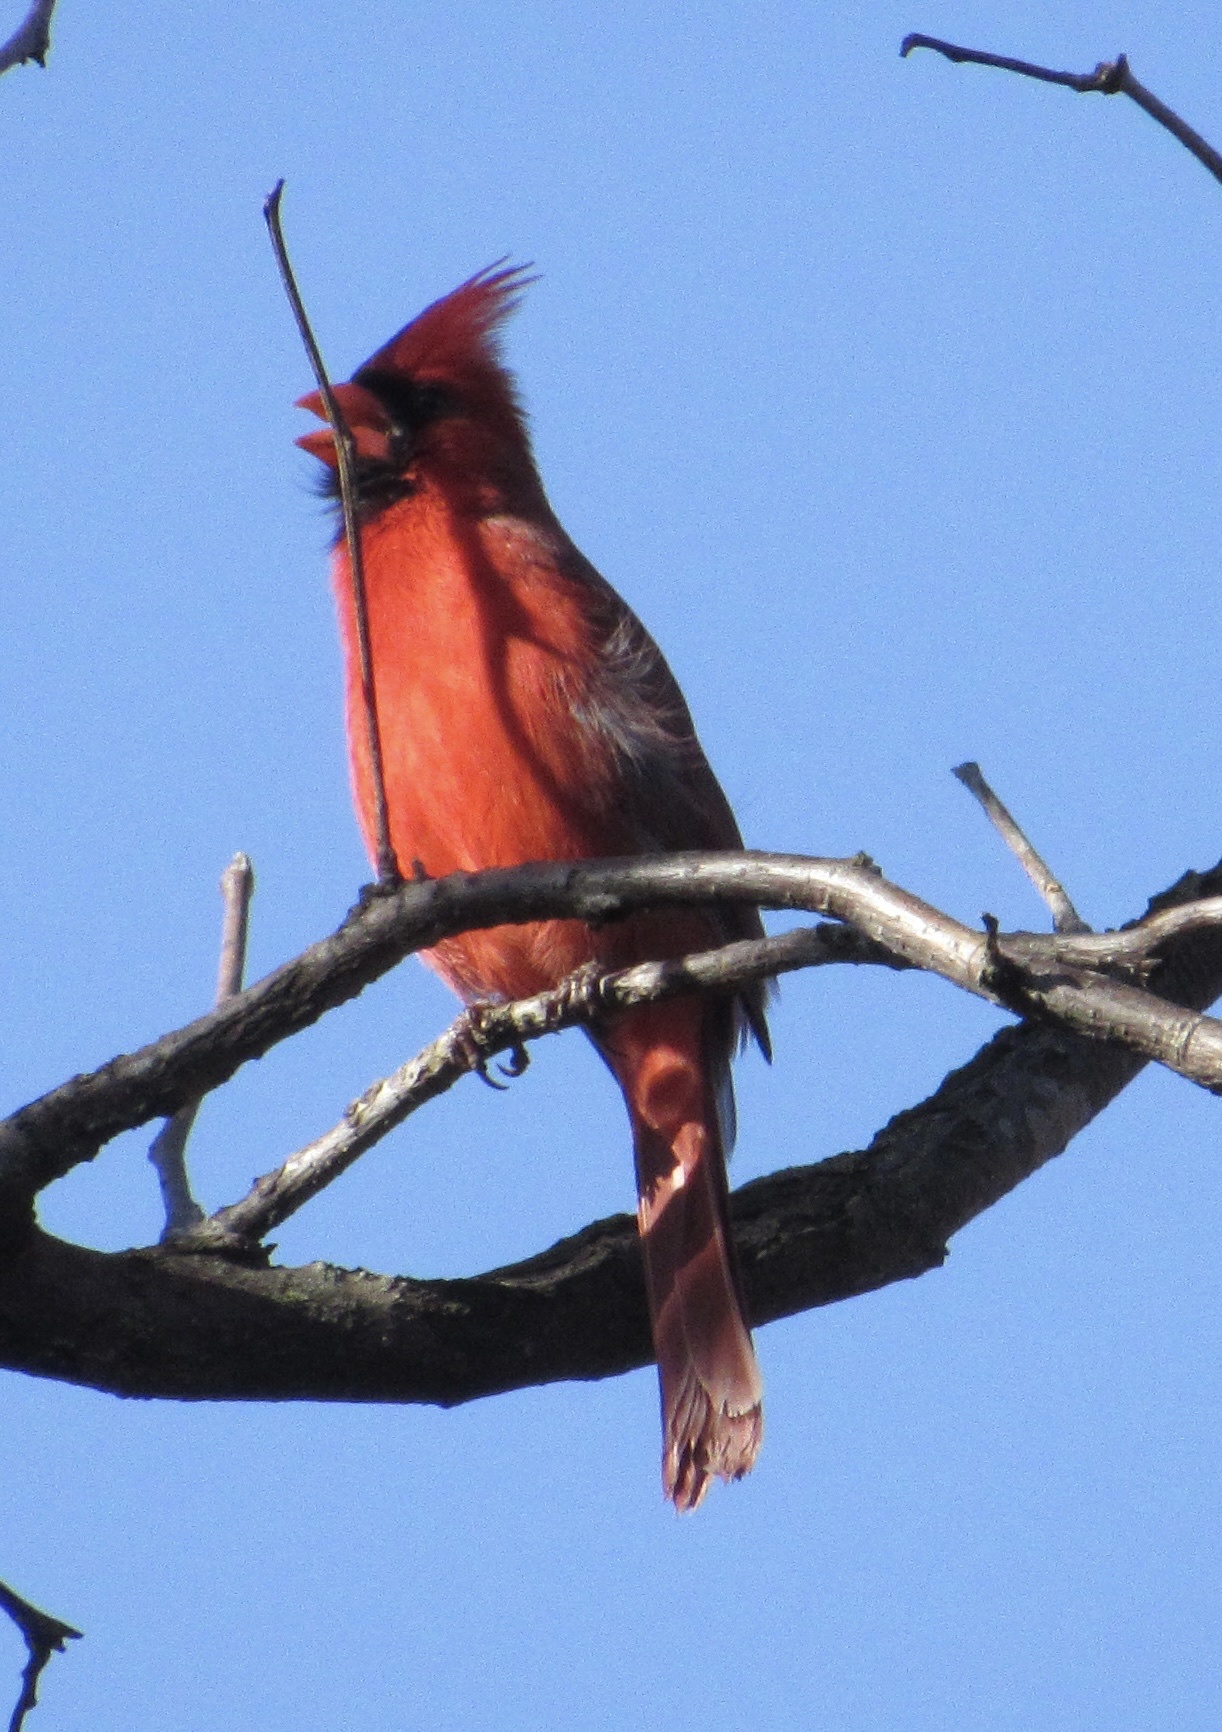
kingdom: Animalia
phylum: Chordata
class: Aves
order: Passeriformes
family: Cardinalidae
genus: Cardinalis
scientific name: Cardinalis cardinalis
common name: Northern cardinal
